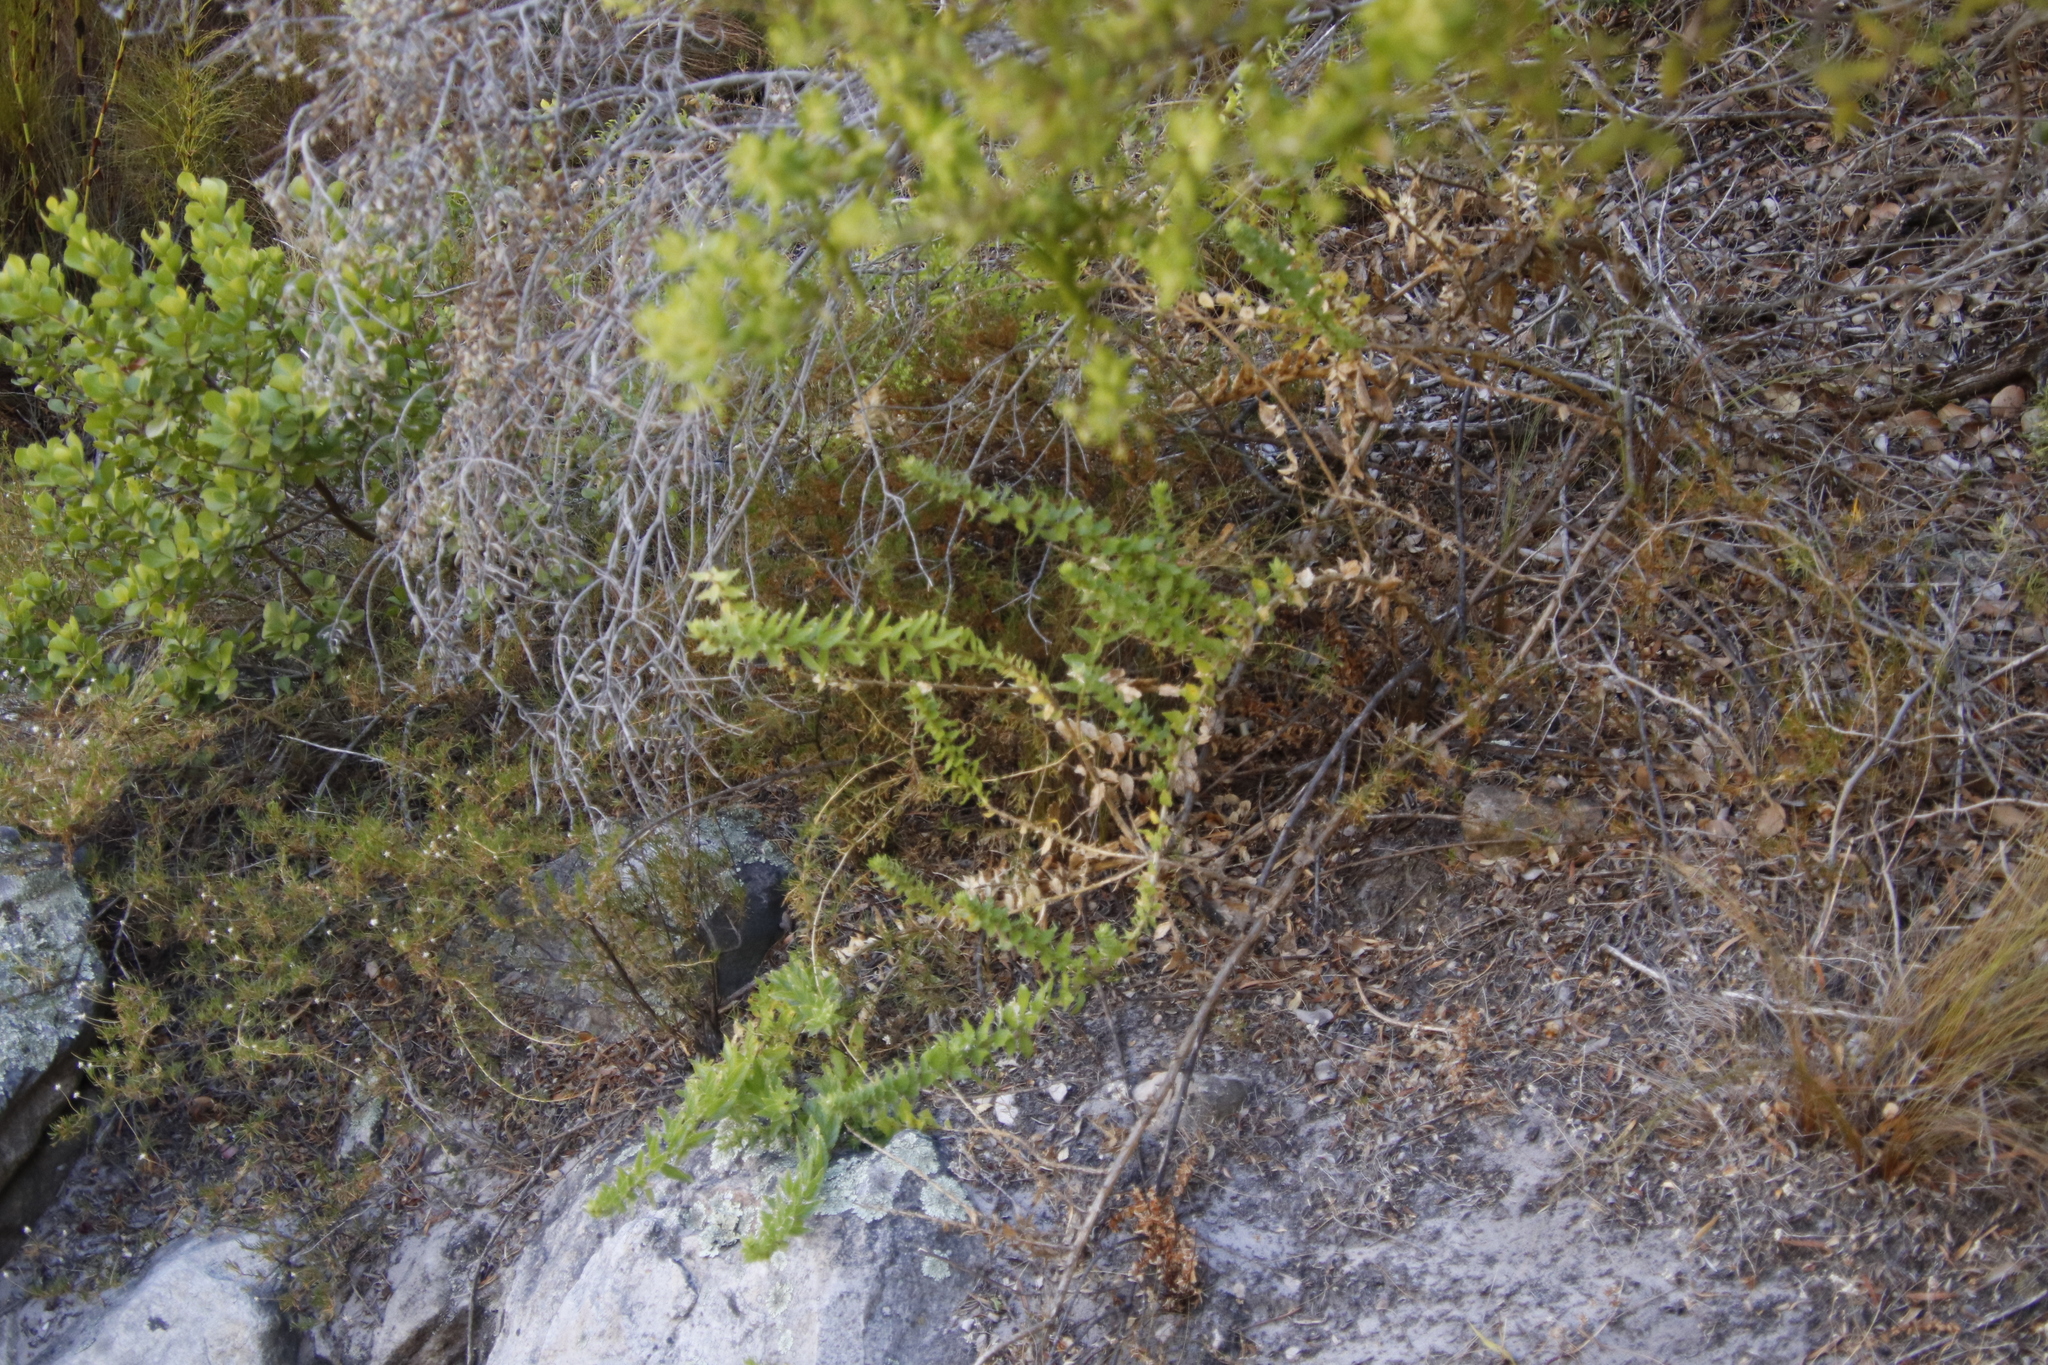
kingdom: Plantae
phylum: Tracheophyta
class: Magnoliopsida
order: Lamiales
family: Scrophulariaceae
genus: Oftia
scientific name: Oftia africana
